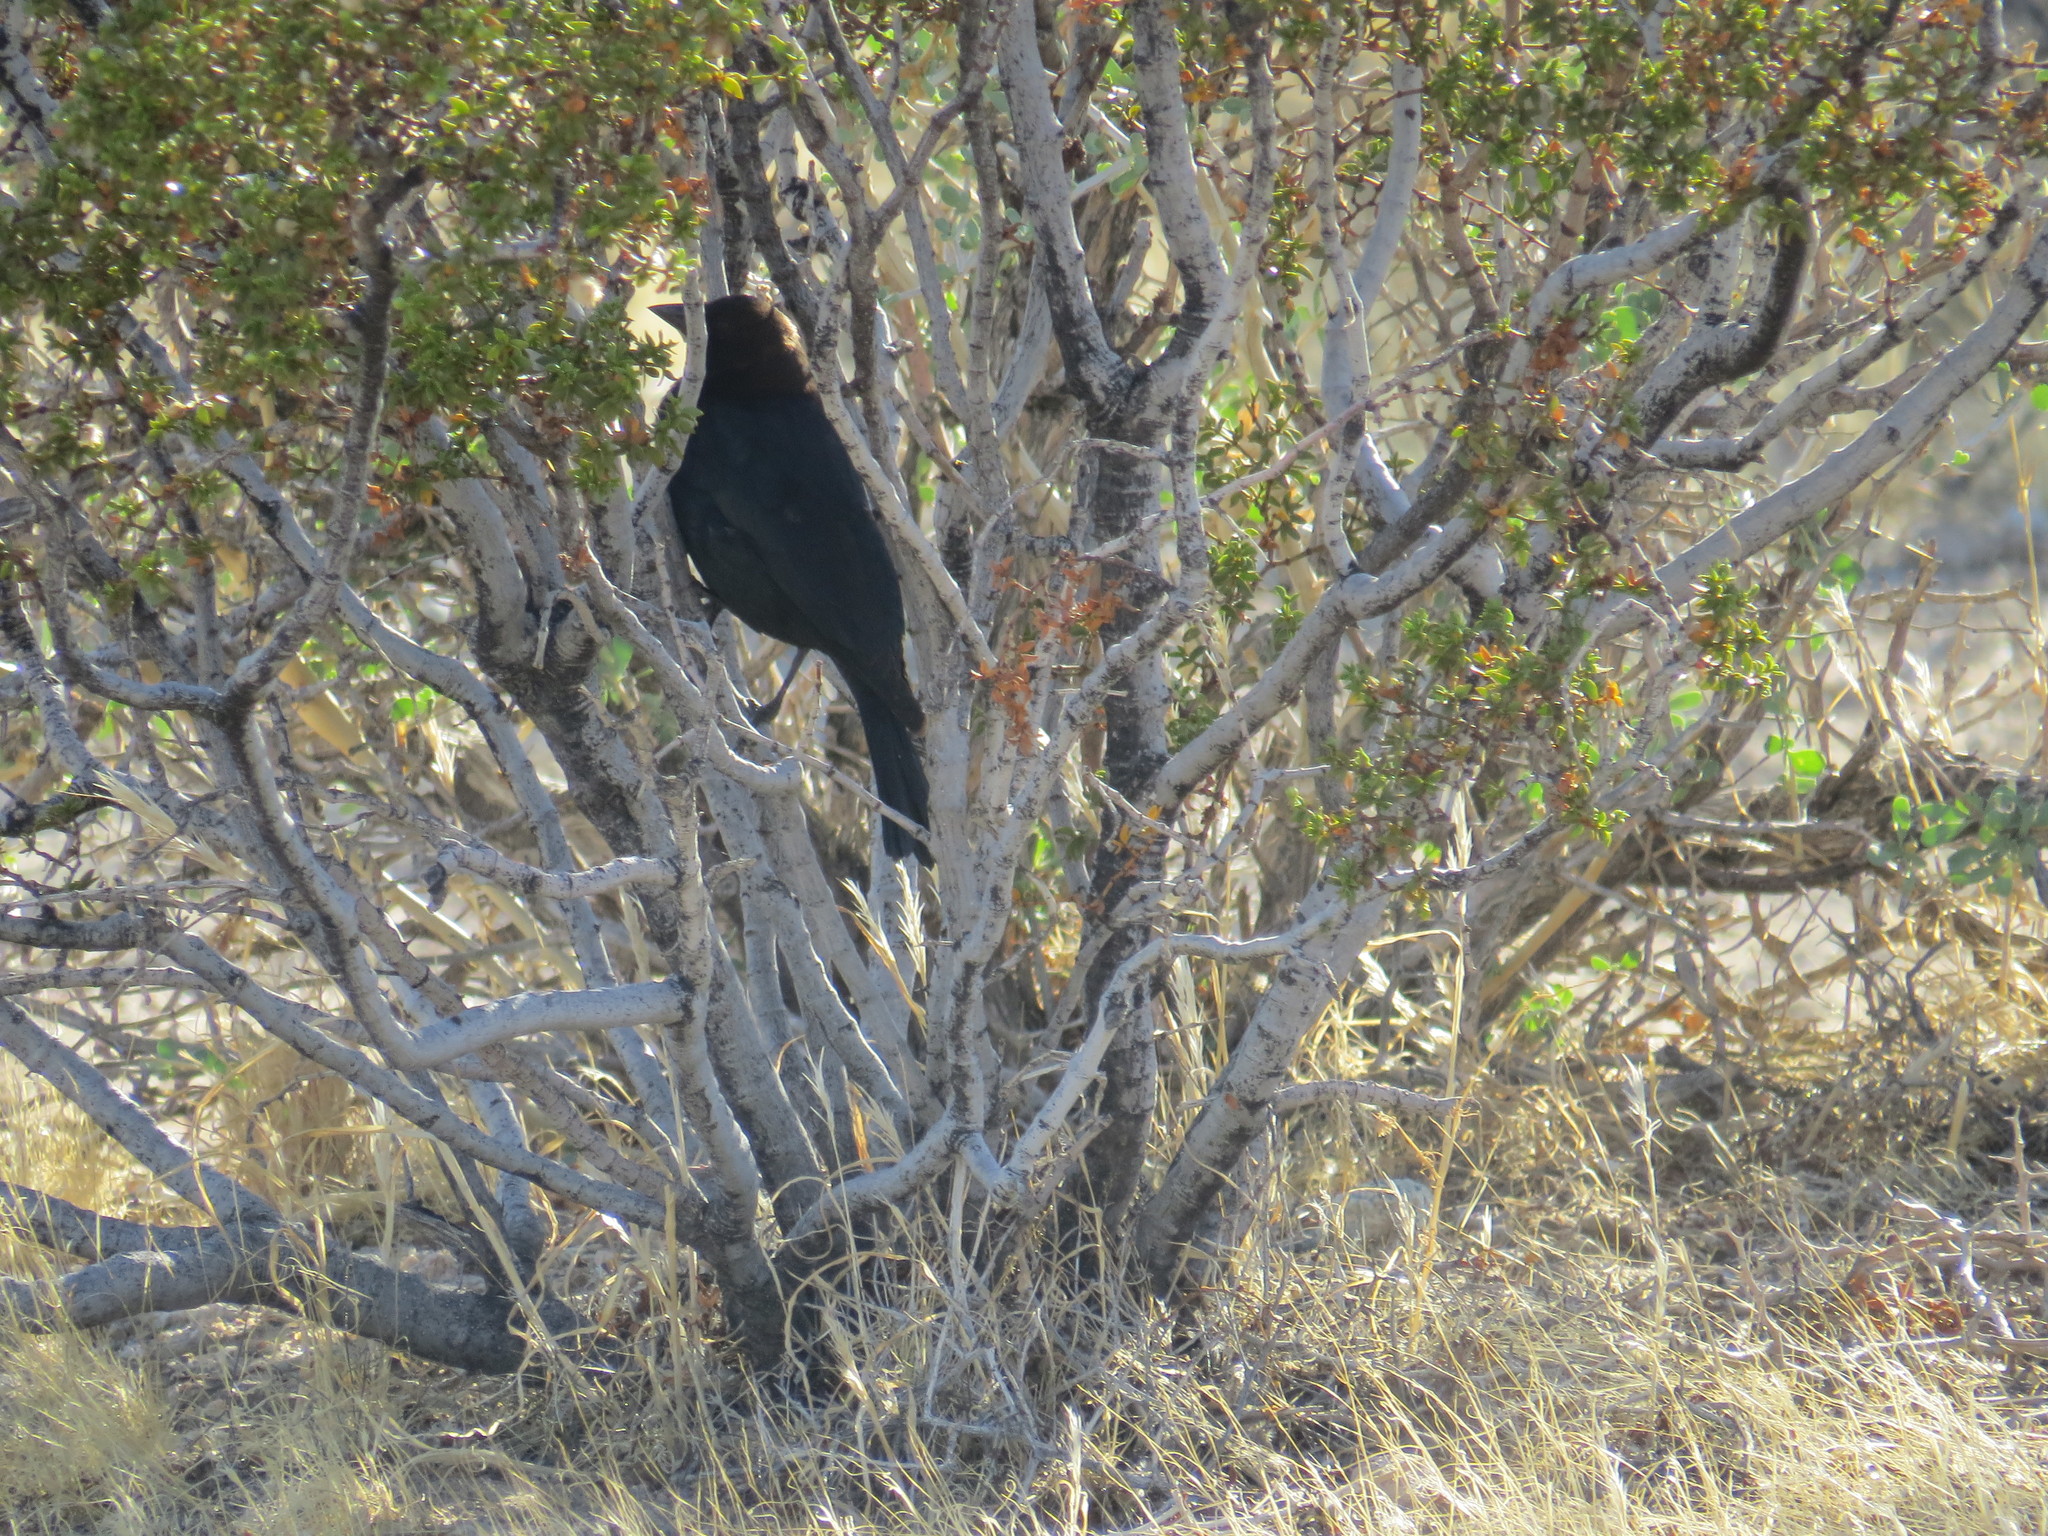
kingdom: Animalia
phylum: Chordata
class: Aves
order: Passeriformes
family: Icteridae
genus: Molothrus
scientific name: Molothrus ater
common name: Brown-headed cowbird
